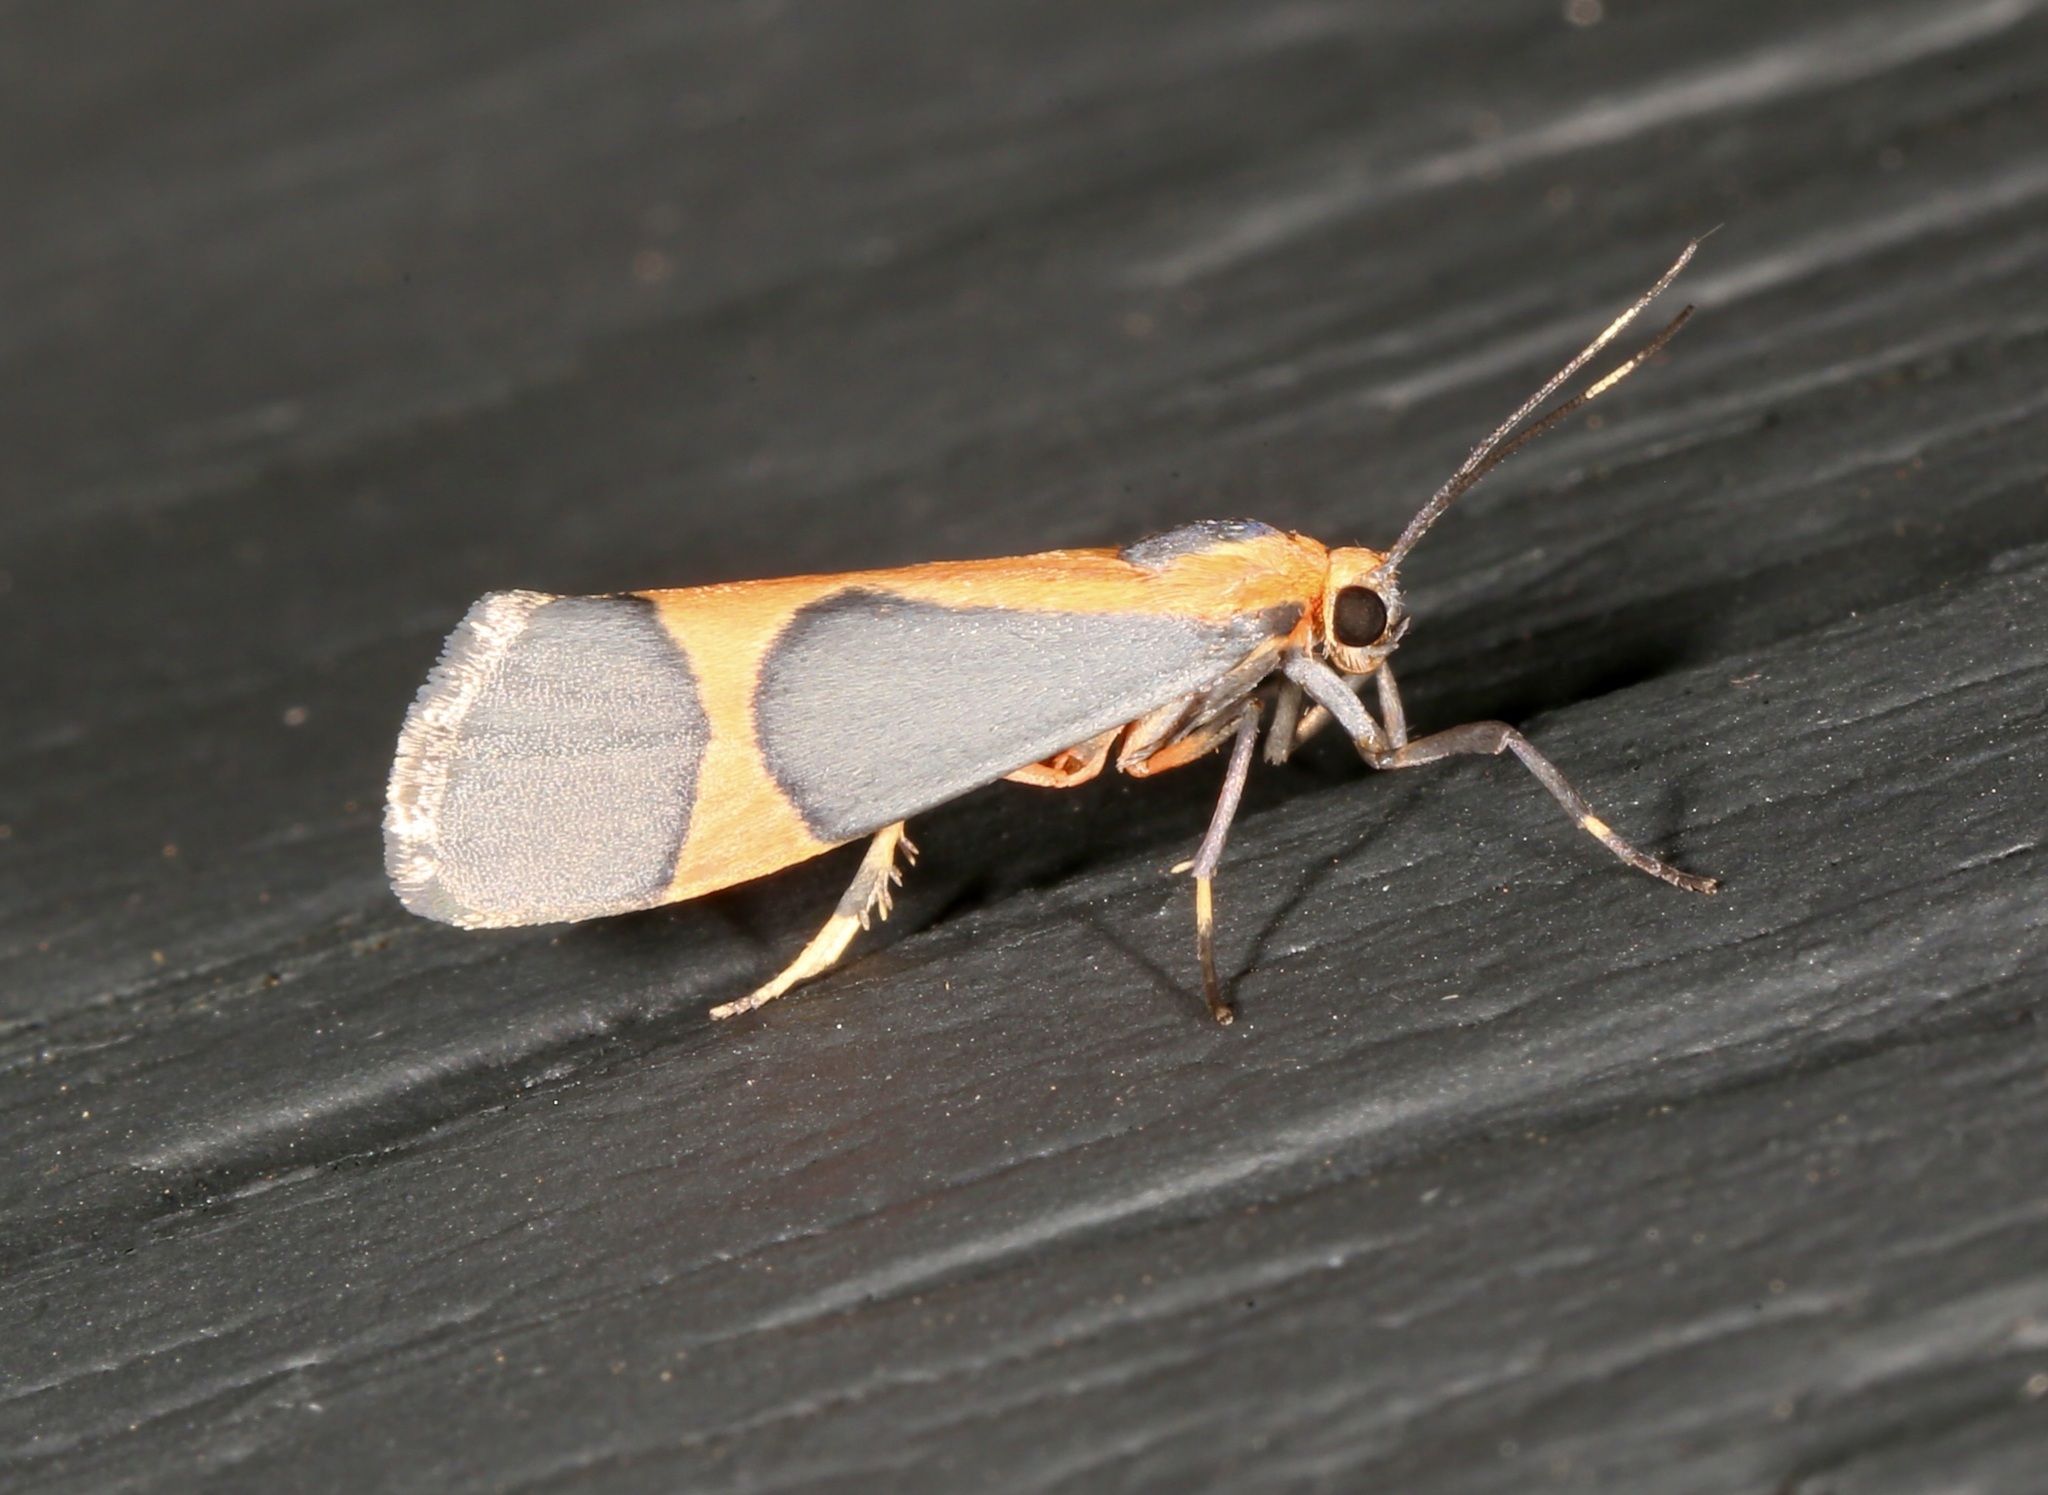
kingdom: Animalia
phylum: Arthropoda
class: Insecta
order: Lepidoptera
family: Erebidae
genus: Cisthene
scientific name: Cisthene martini
